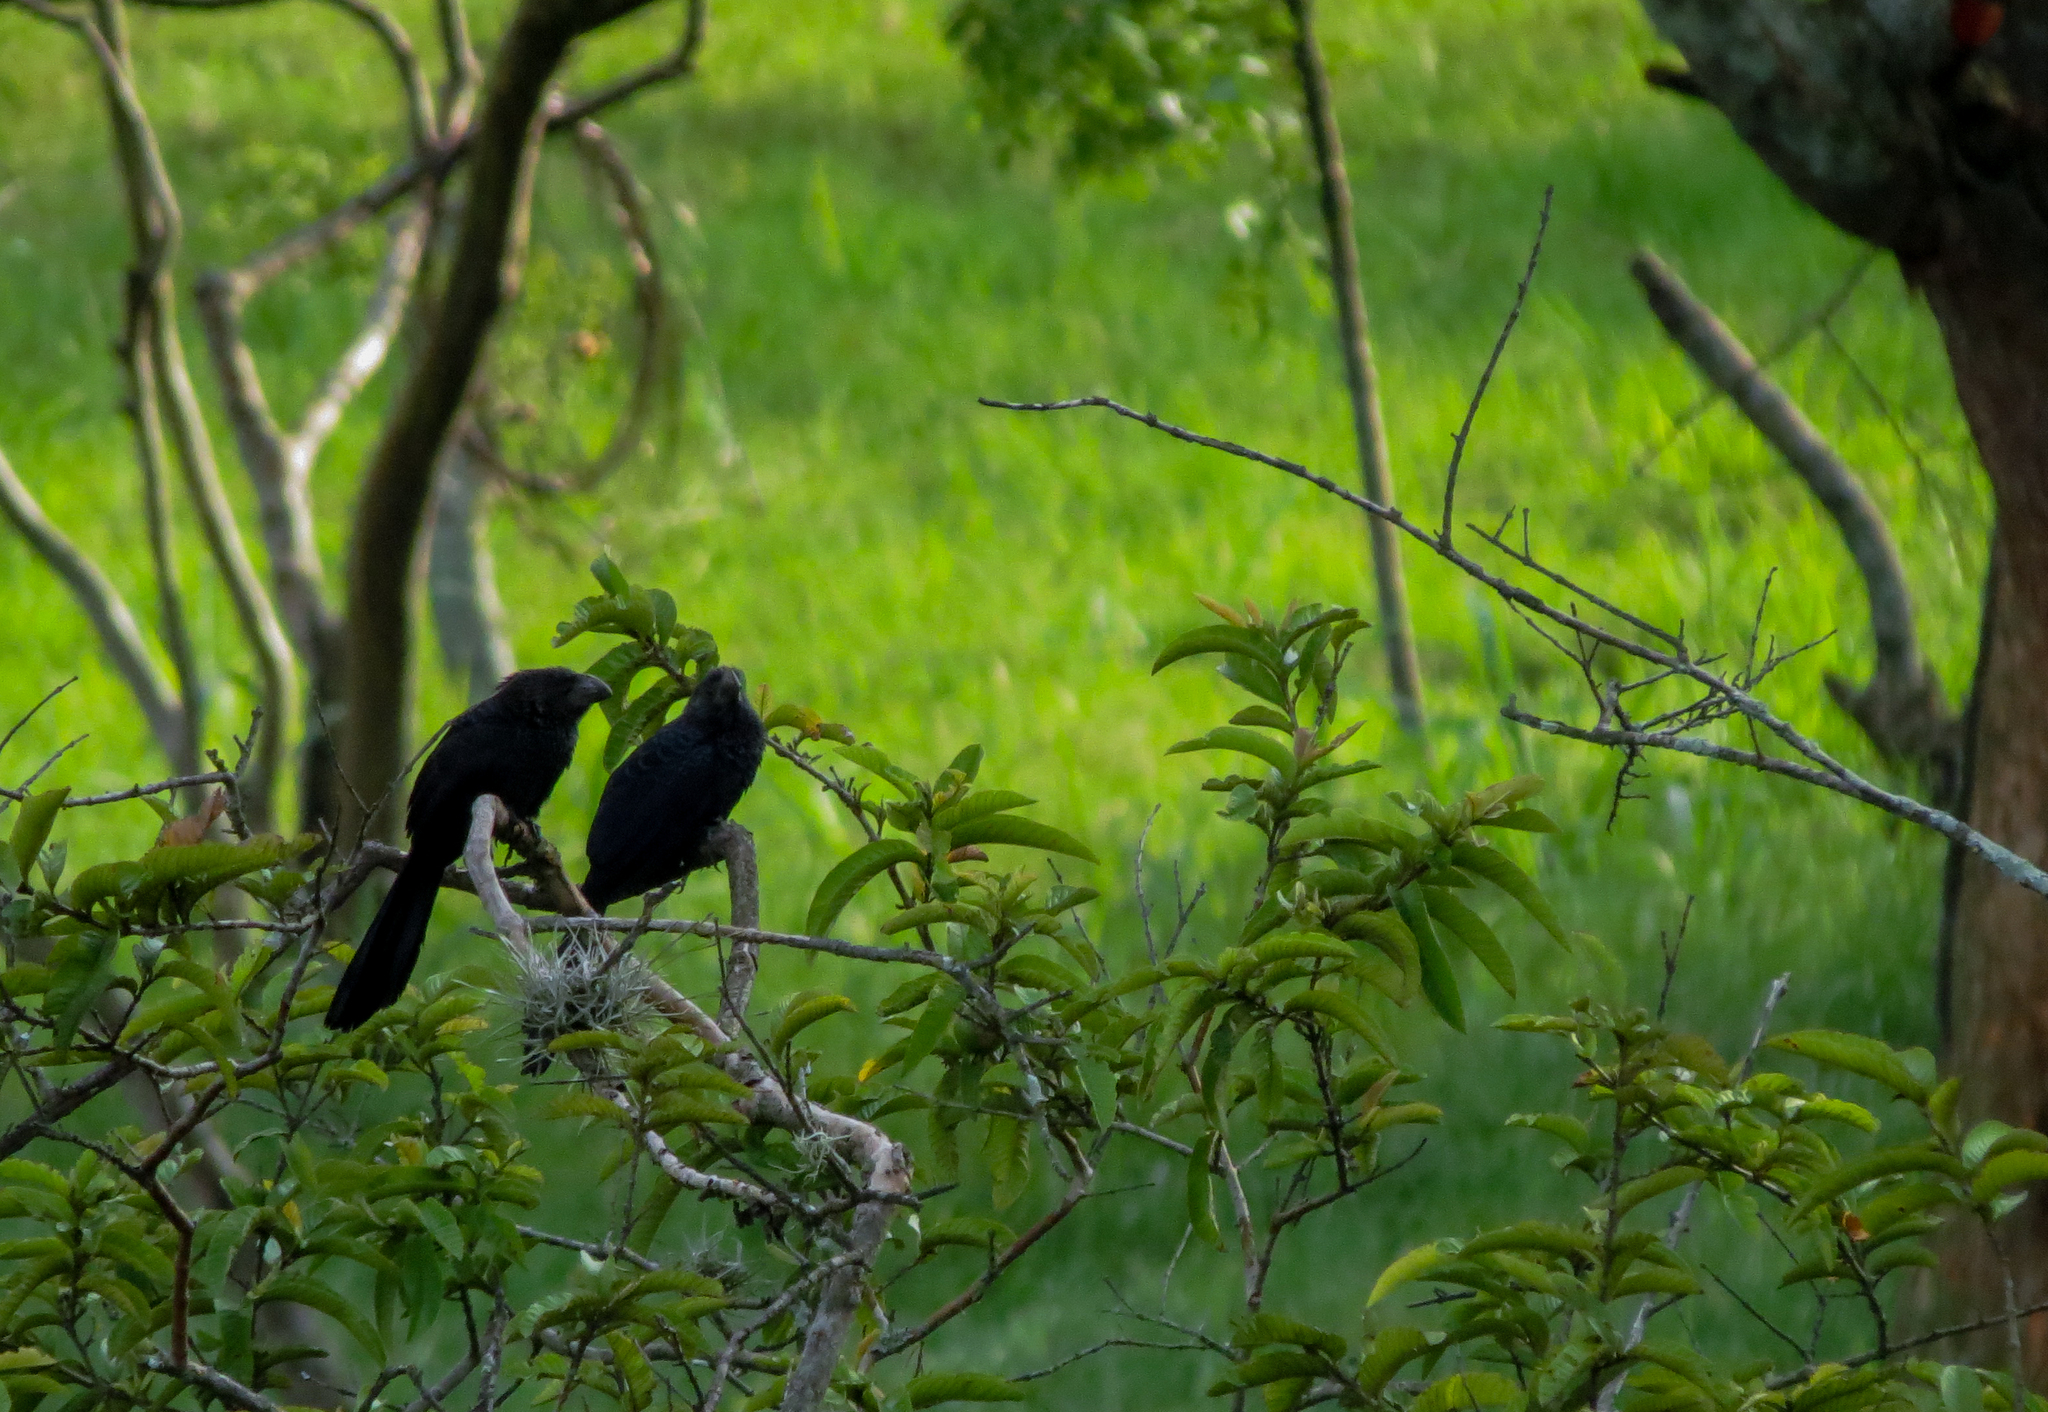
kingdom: Animalia
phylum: Chordata
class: Aves
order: Cuculiformes
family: Cuculidae
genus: Crotophaga
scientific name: Crotophaga ani
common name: Smooth-billed ani
